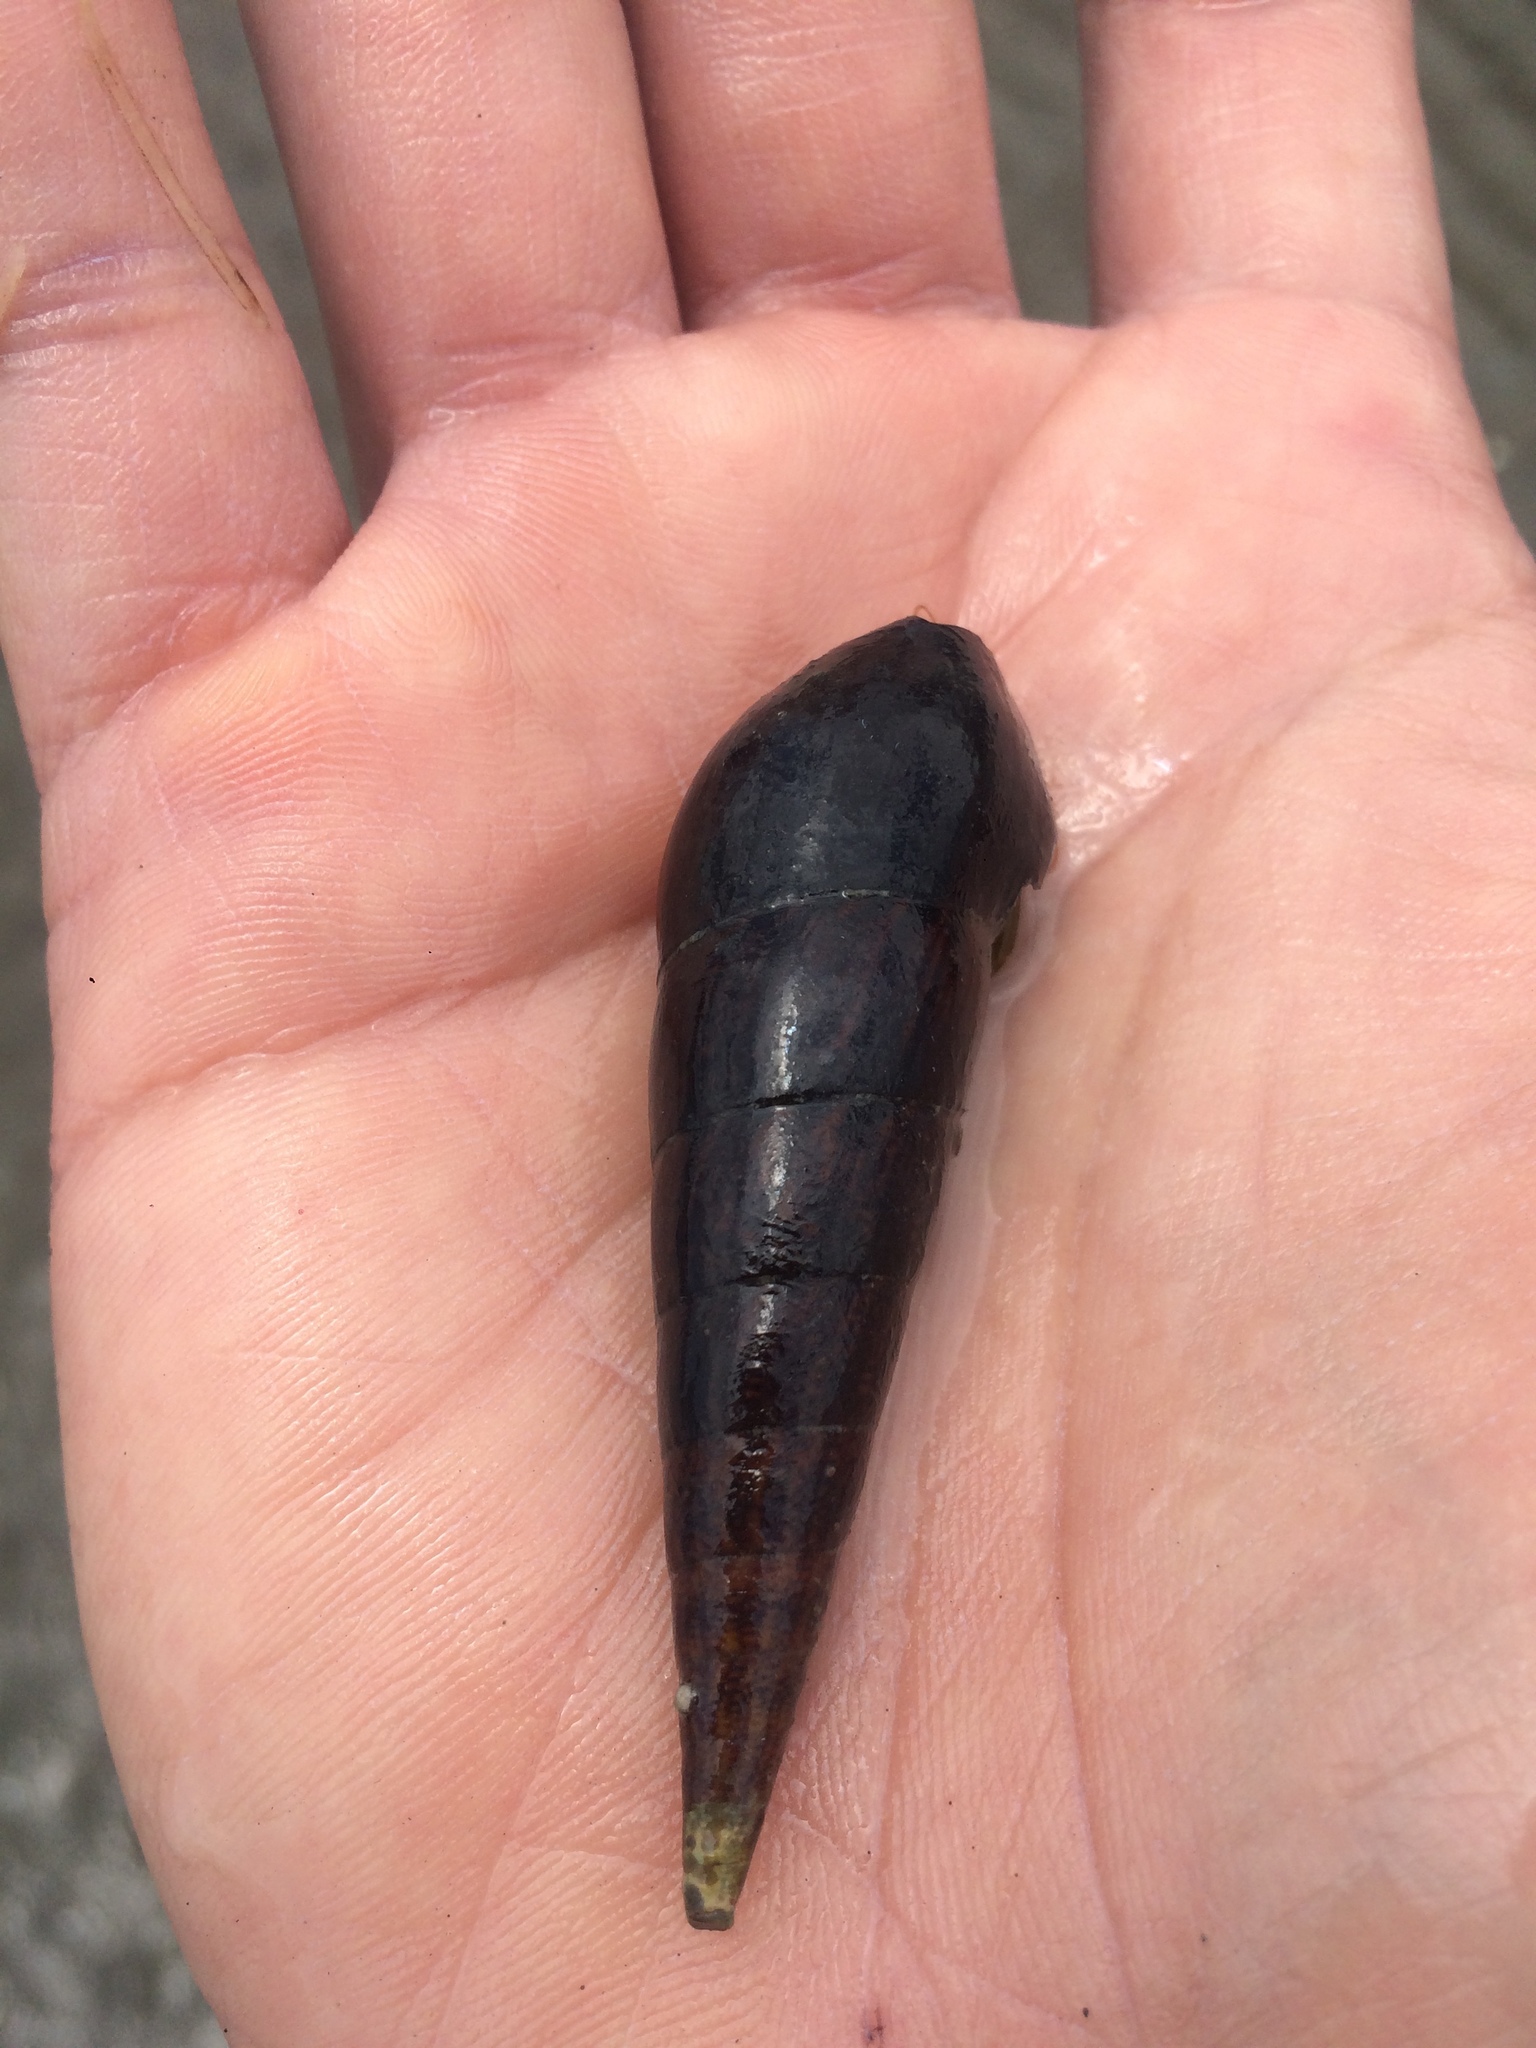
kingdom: Animalia
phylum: Mollusca
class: Gastropoda
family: Pachychilidae
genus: Faunus
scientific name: Faunus ater
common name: Black faunus
